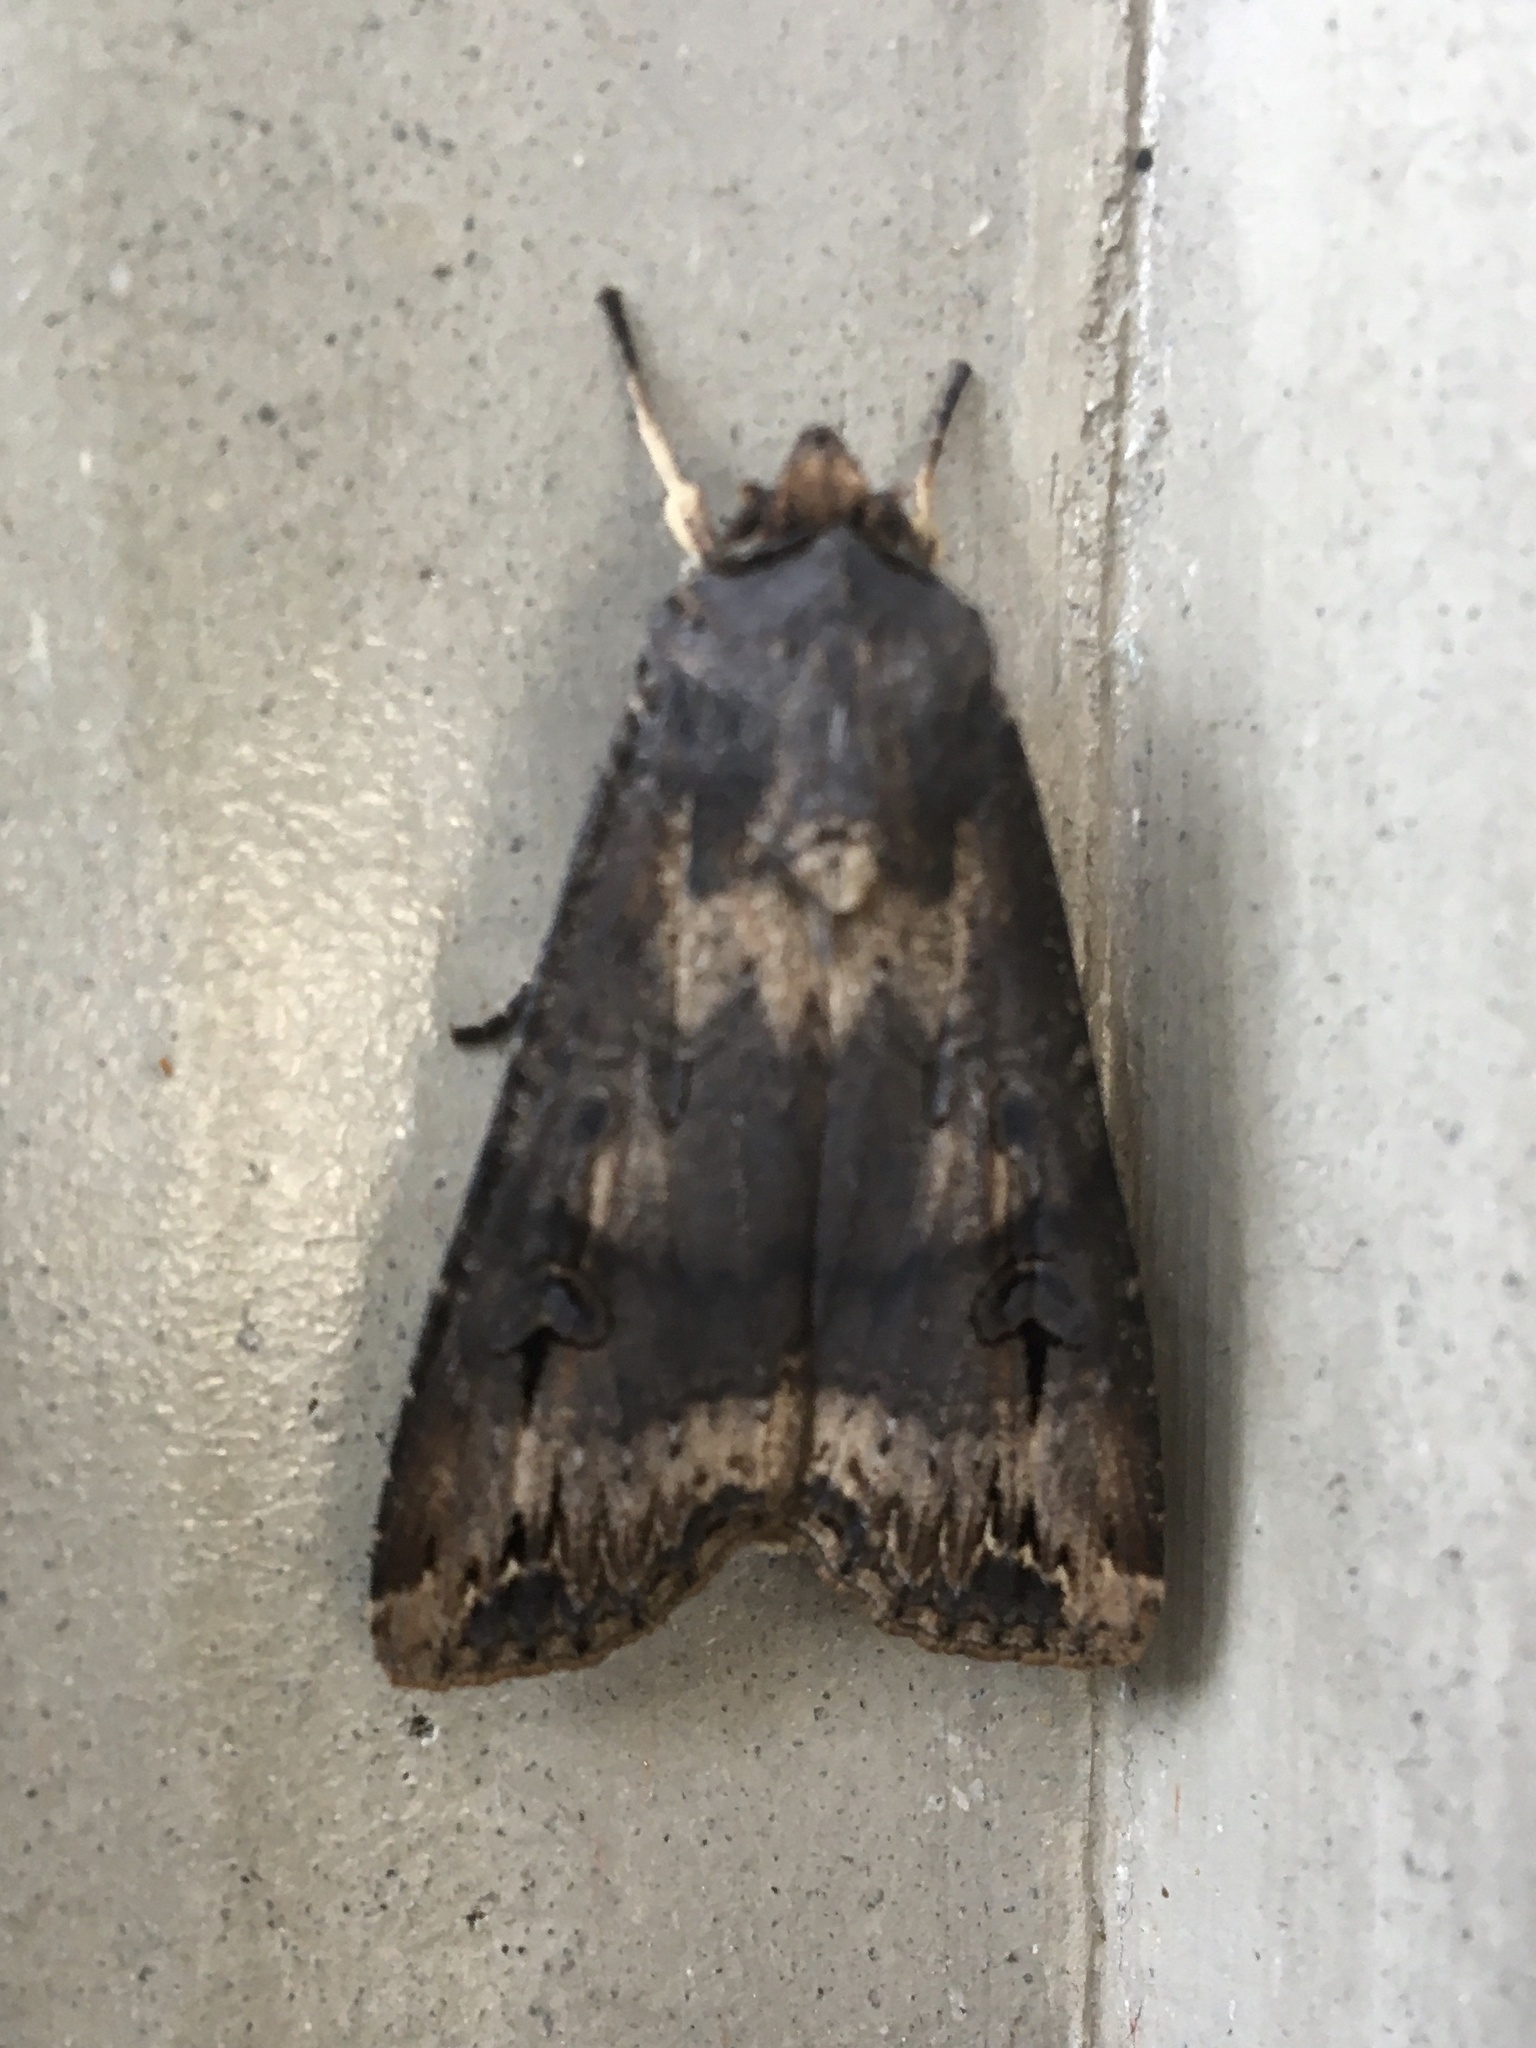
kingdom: Animalia
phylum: Arthropoda
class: Insecta
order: Lepidoptera
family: Noctuidae
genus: Agrotis
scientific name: Agrotis ipsilon
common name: Dark sword-grass
